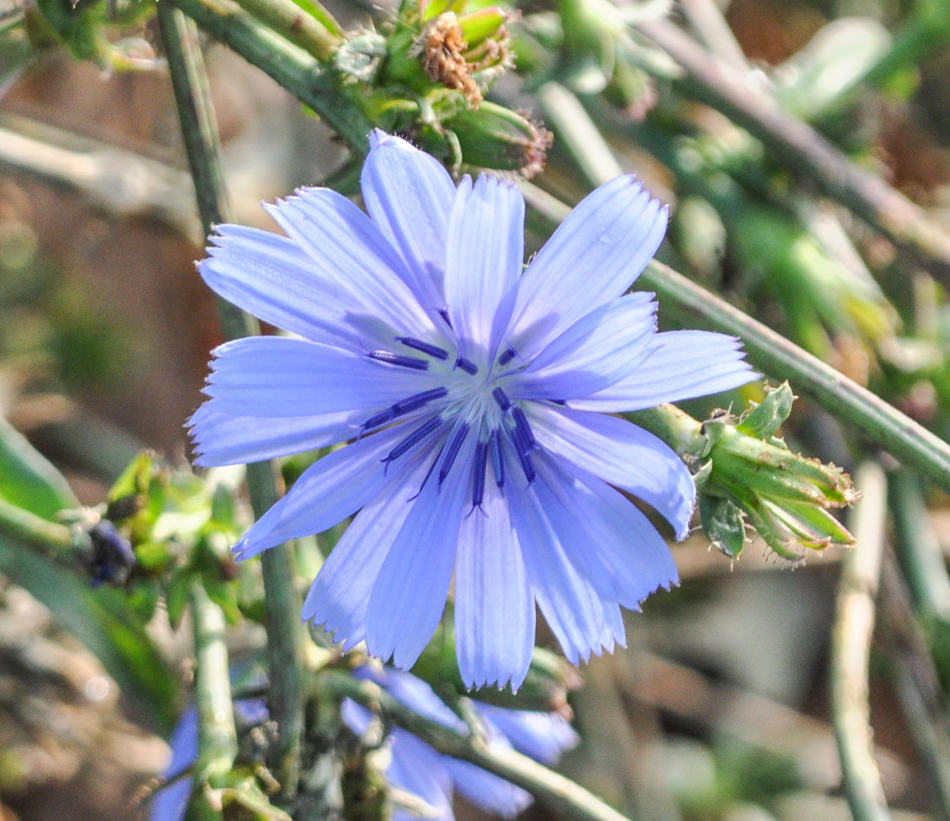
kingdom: Plantae
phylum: Tracheophyta
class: Magnoliopsida
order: Asterales
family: Asteraceae
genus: Cichorium
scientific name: Cichorium intybus
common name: Chicory
